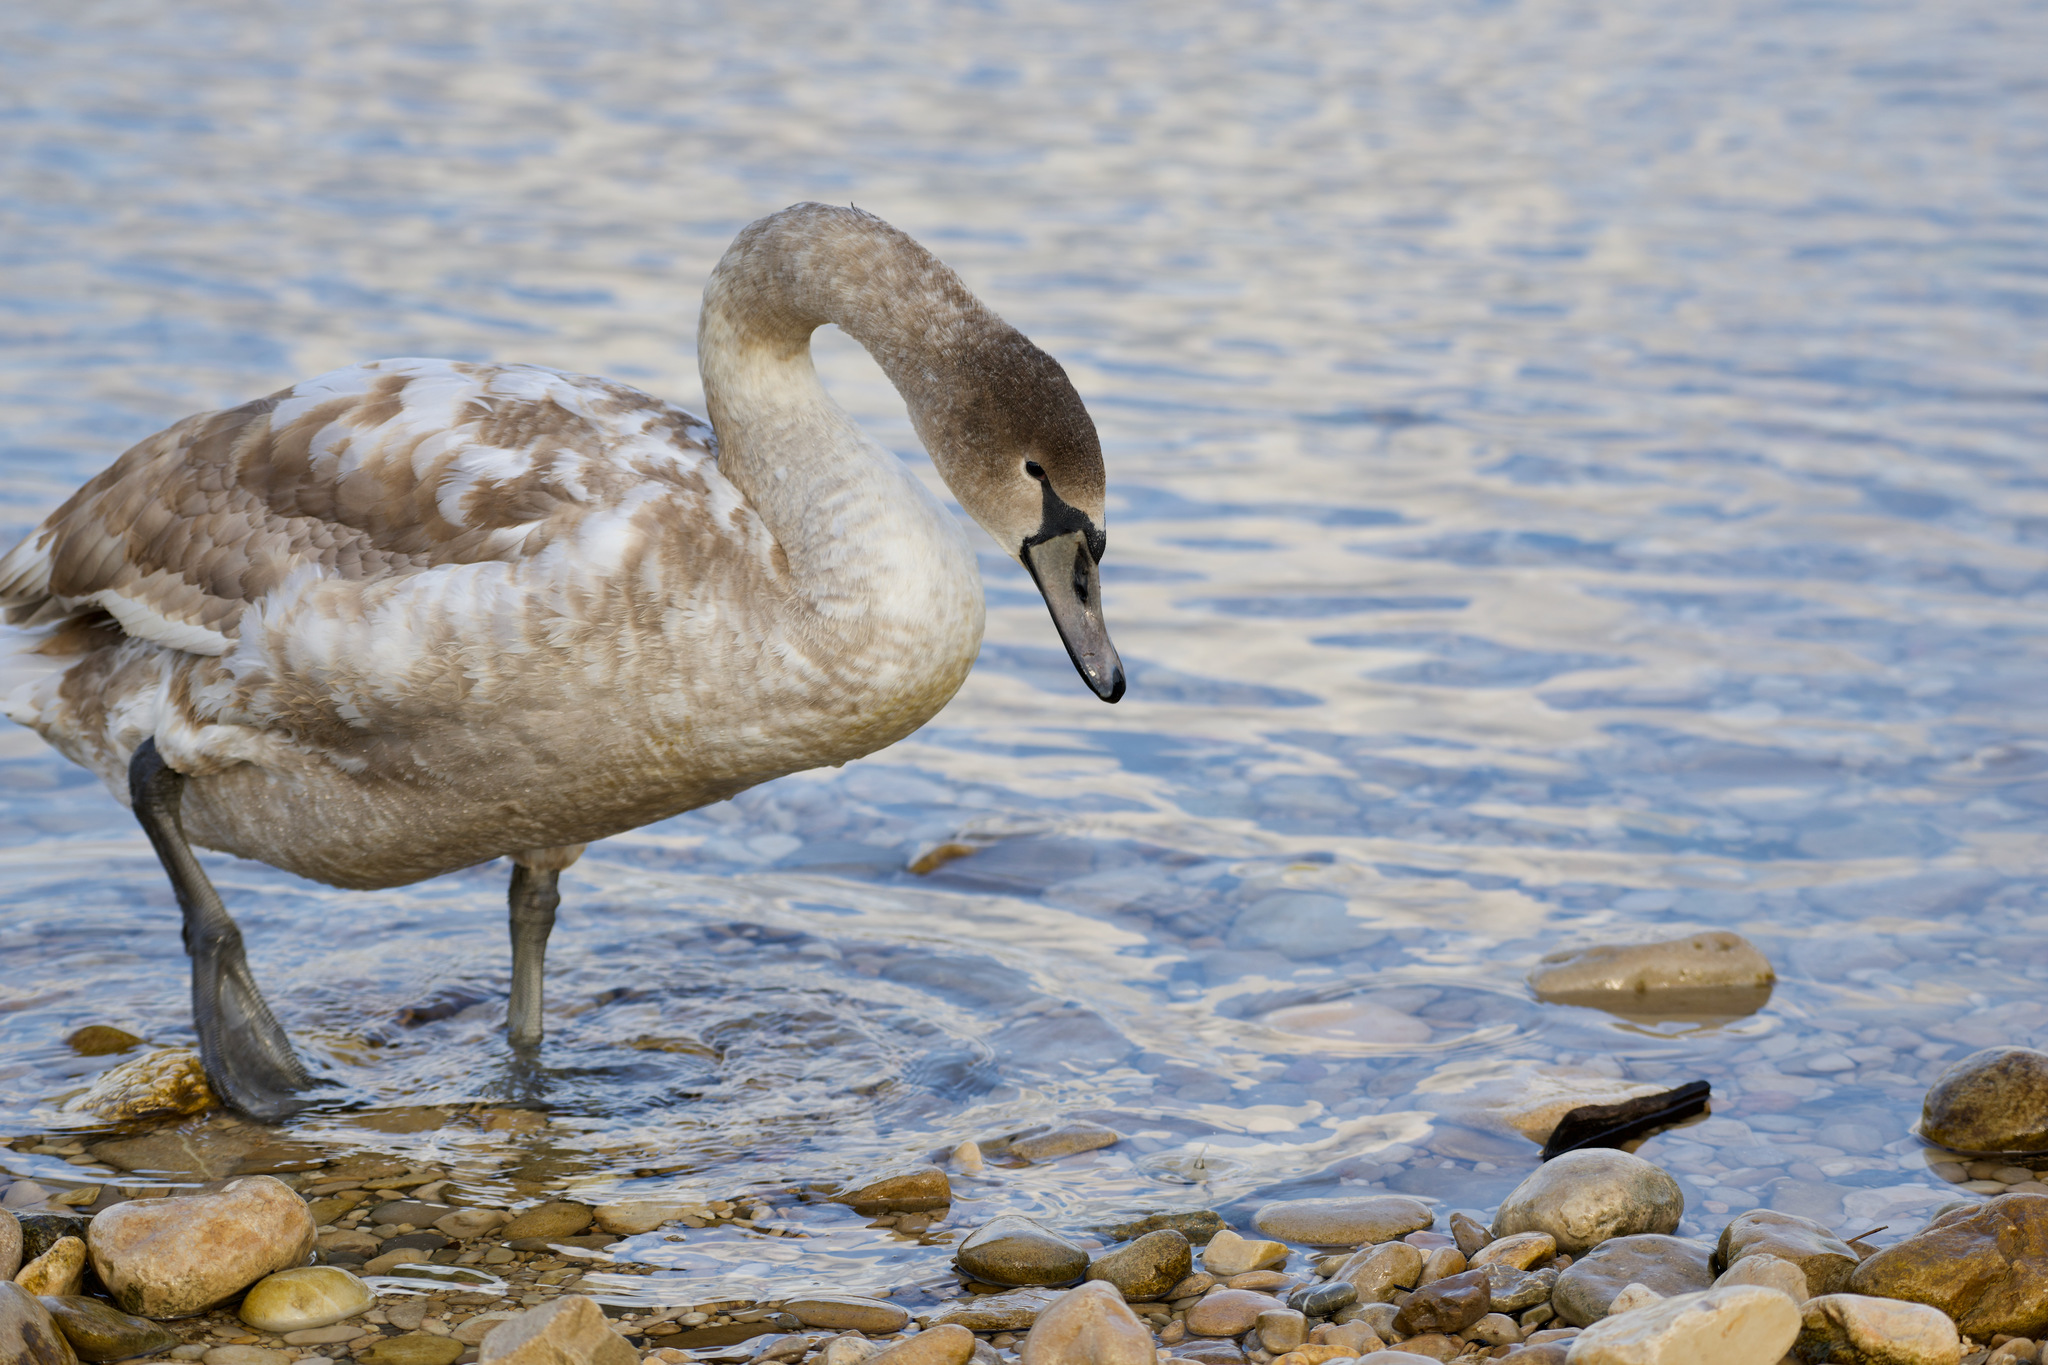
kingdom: Animalia
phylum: Chordata
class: Aves
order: Anseriformes
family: Anatidae
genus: Cygnus
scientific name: Cygnus olor
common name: Mute swan
